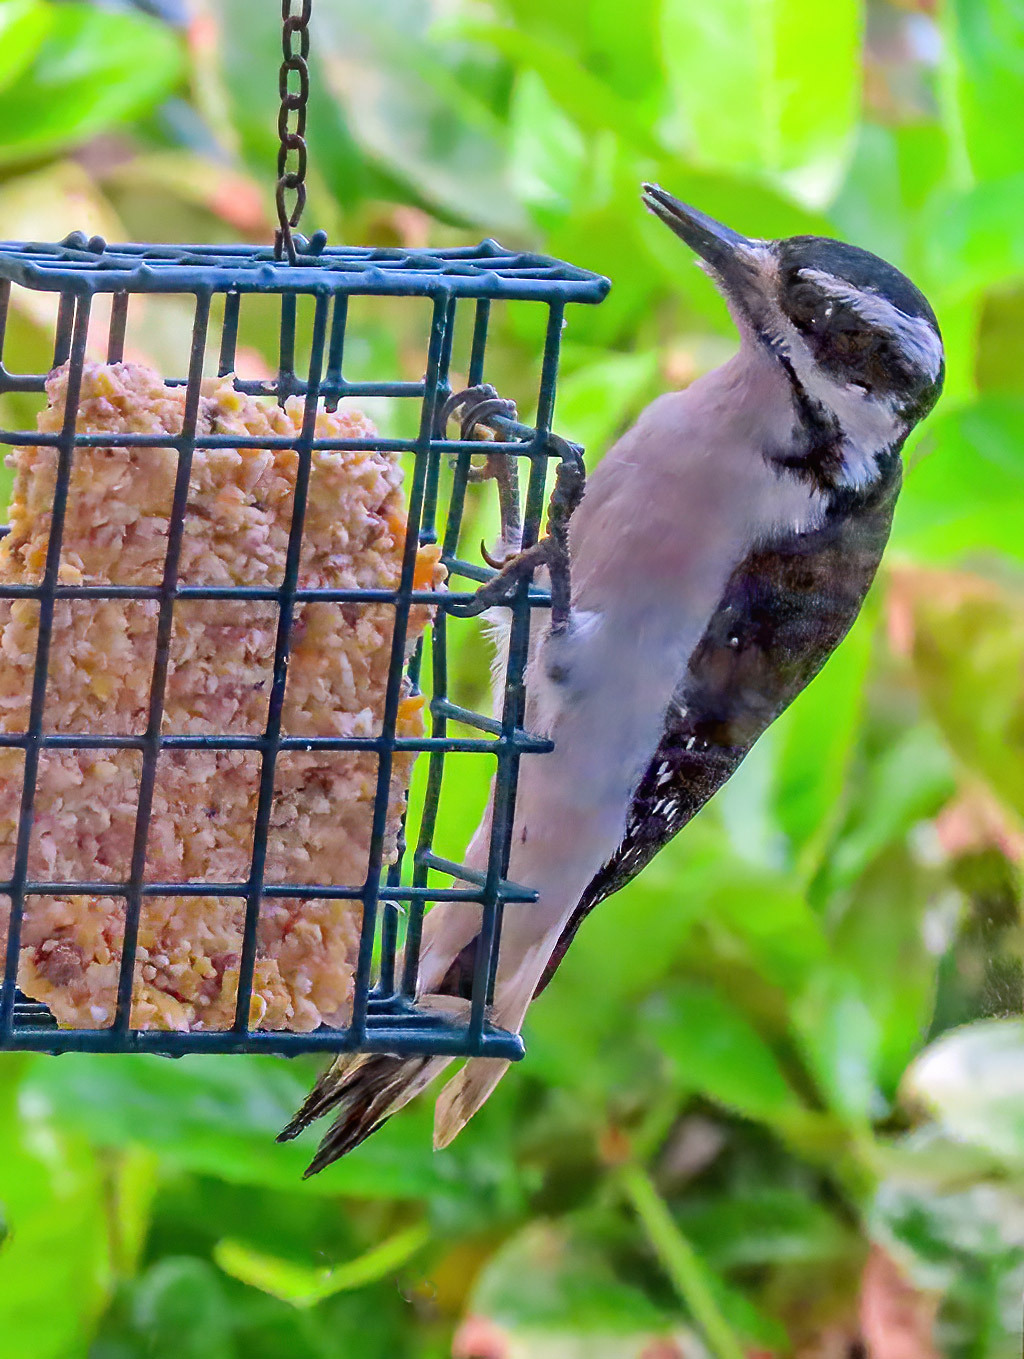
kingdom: Animalia
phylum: Chordata
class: Aves
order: Piciformes
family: Picidae
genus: Leuconotopicus
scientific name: Leuconotopicus villosus
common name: Hairy woodpecker
